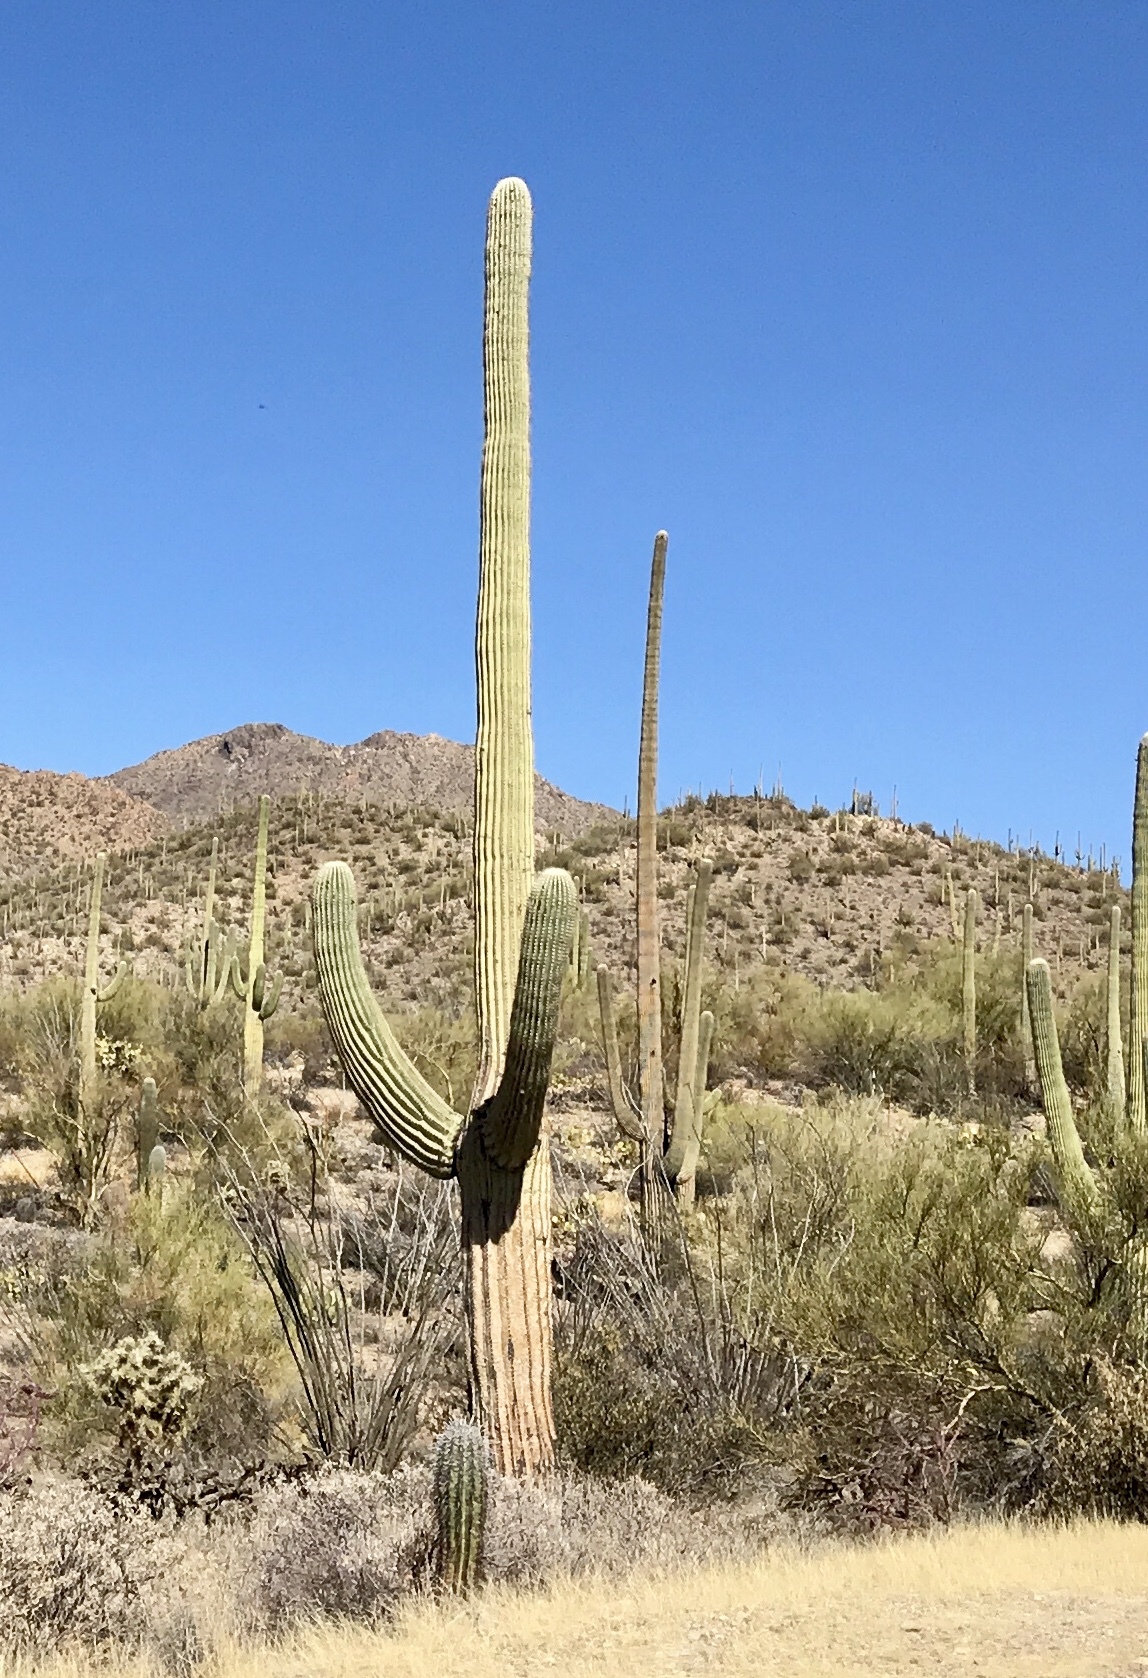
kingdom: Plantae
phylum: Tracheophyta
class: Magnoliopsida
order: Caryophyllales
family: Cactaceae
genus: Carnegiea
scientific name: Carnegiea gigantea
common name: Saguaro
